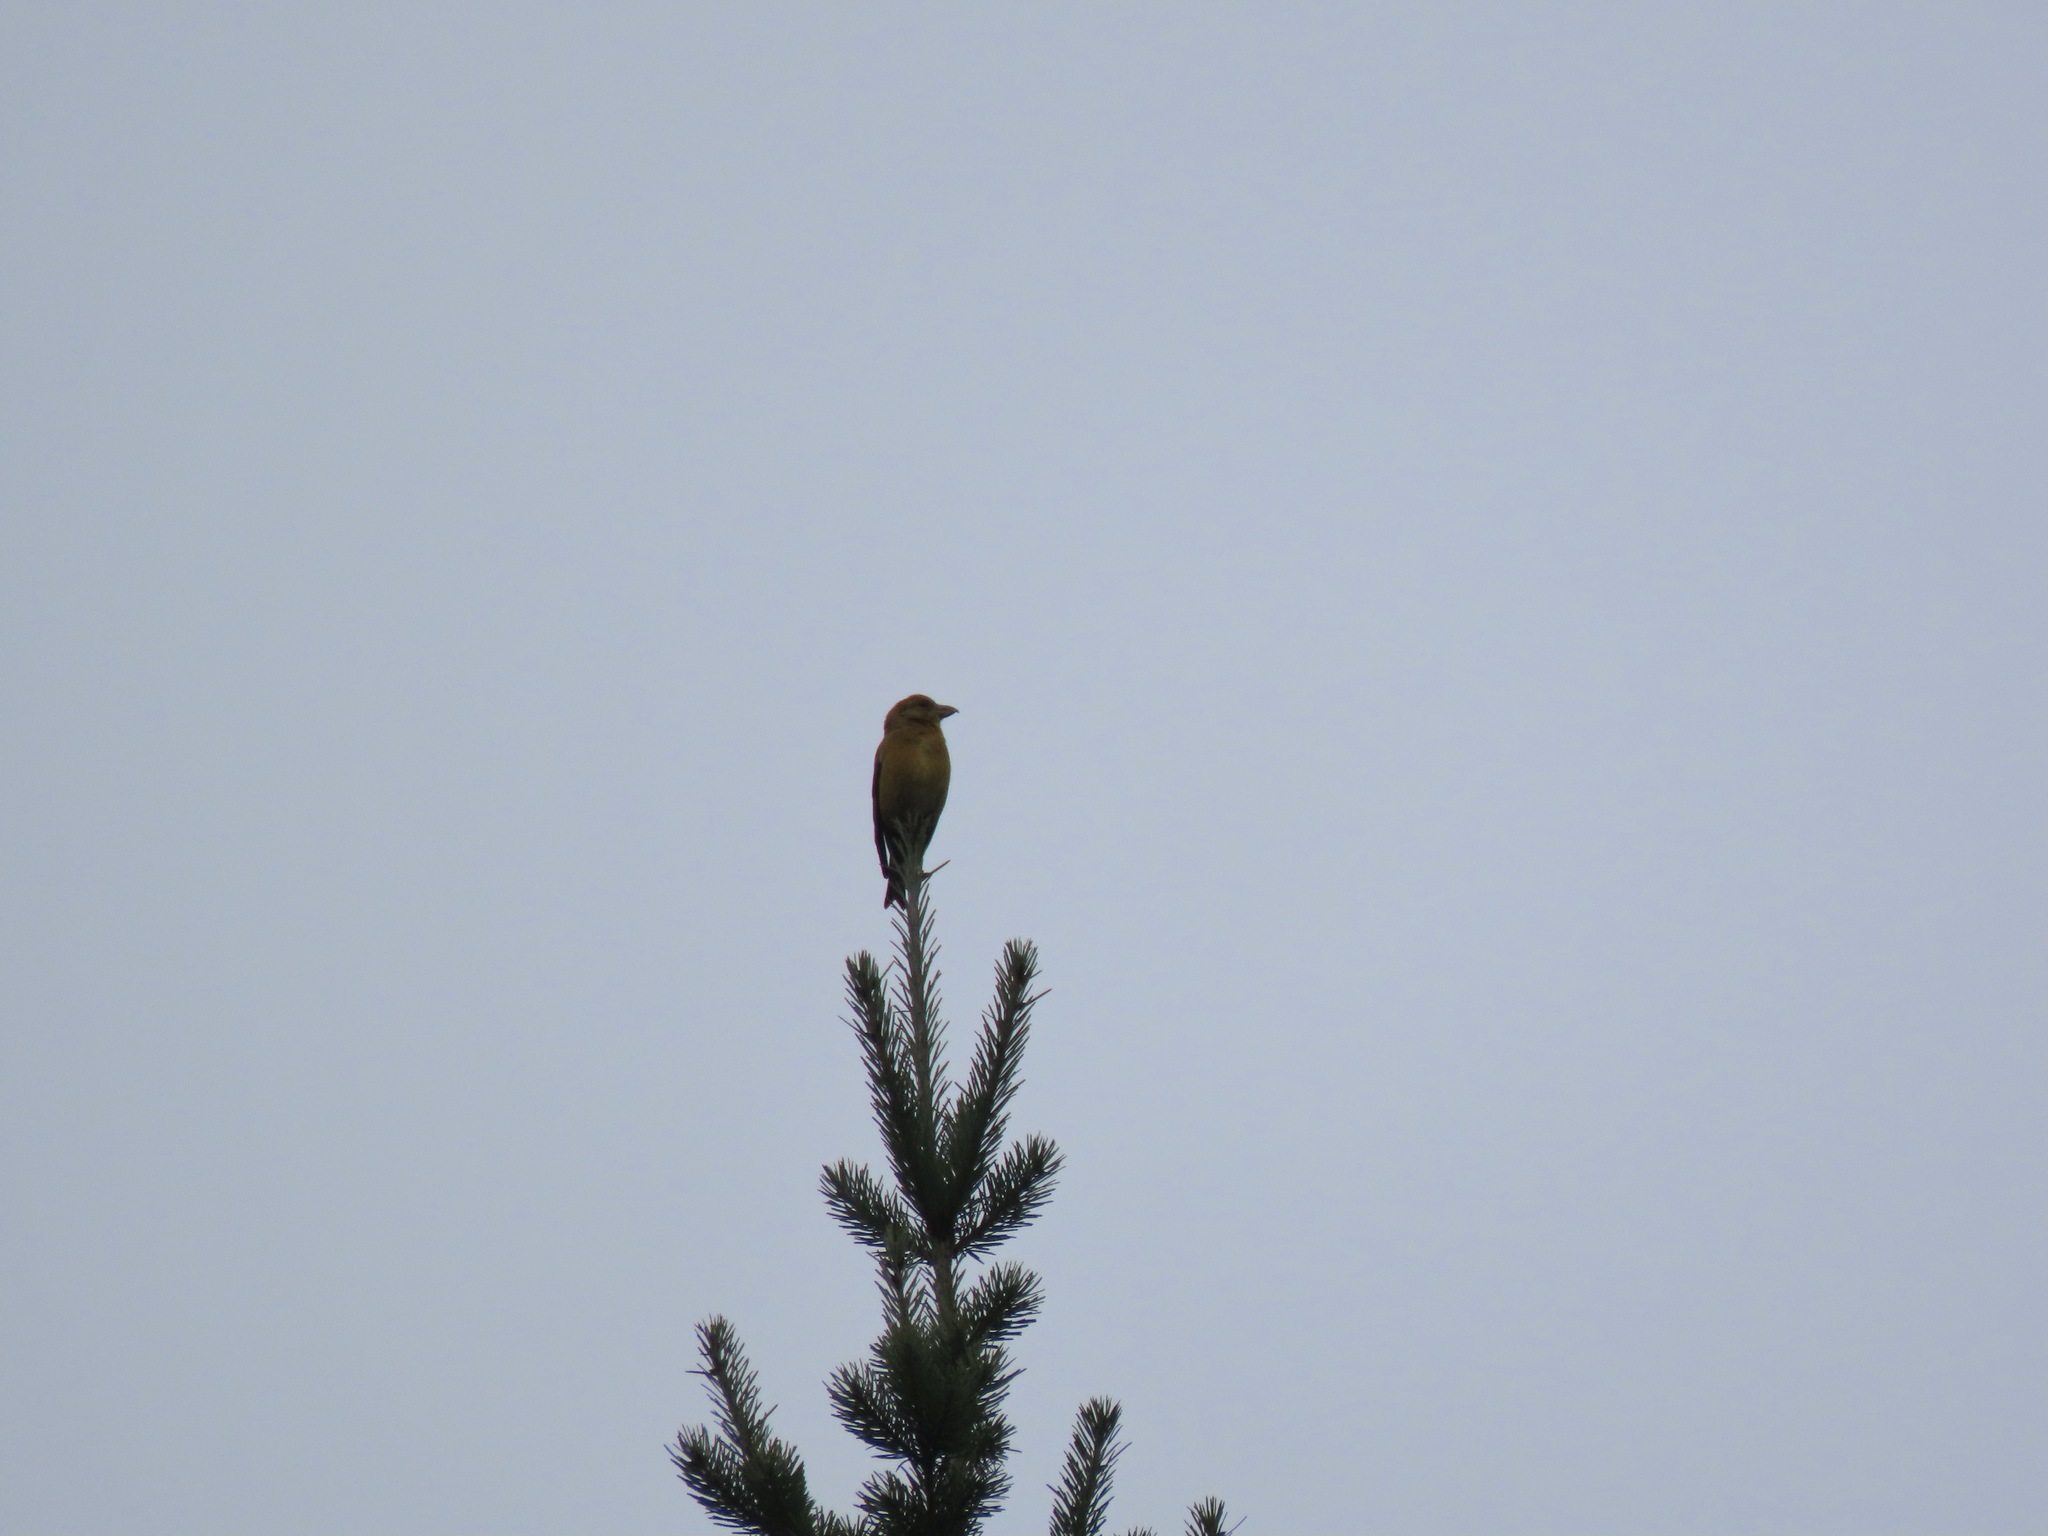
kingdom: Animalia
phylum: Chordata
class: Aves
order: Passeriformes
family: Fringillidae
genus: Loxia
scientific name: Loxia curvirostra
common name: Red crossbill
